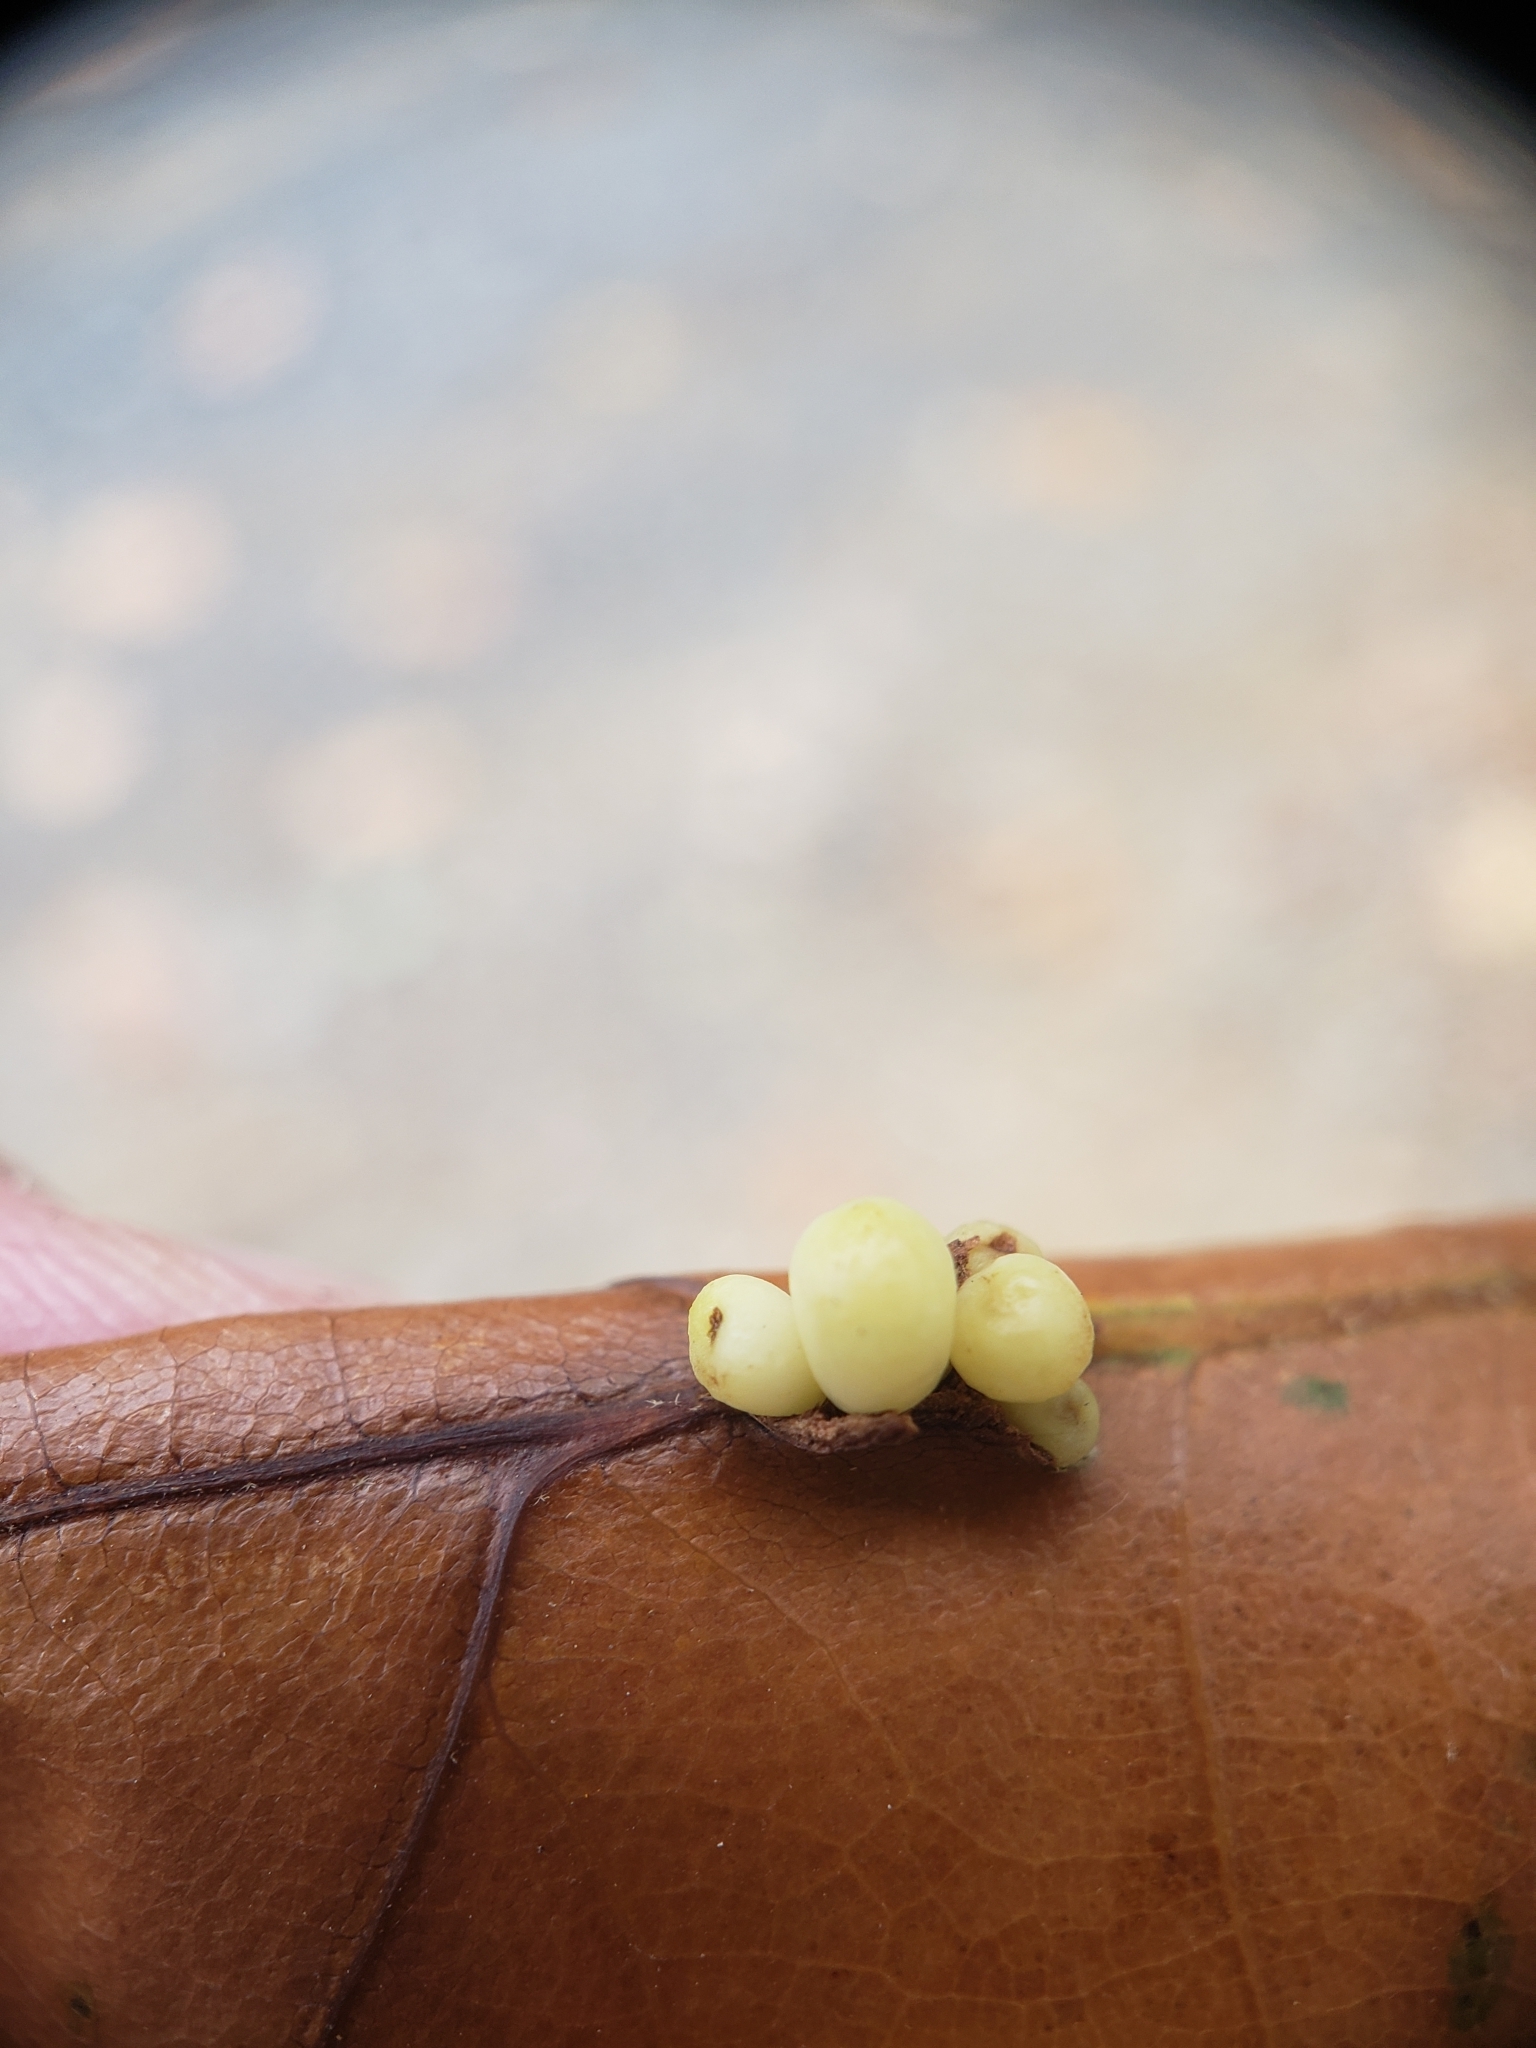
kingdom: Animalia
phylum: Arthropoda
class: Insecta
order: Hymenoptera
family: Cynipidae
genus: Kokkocynips
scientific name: Kokkocynips decidua
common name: Oak wheat gall
